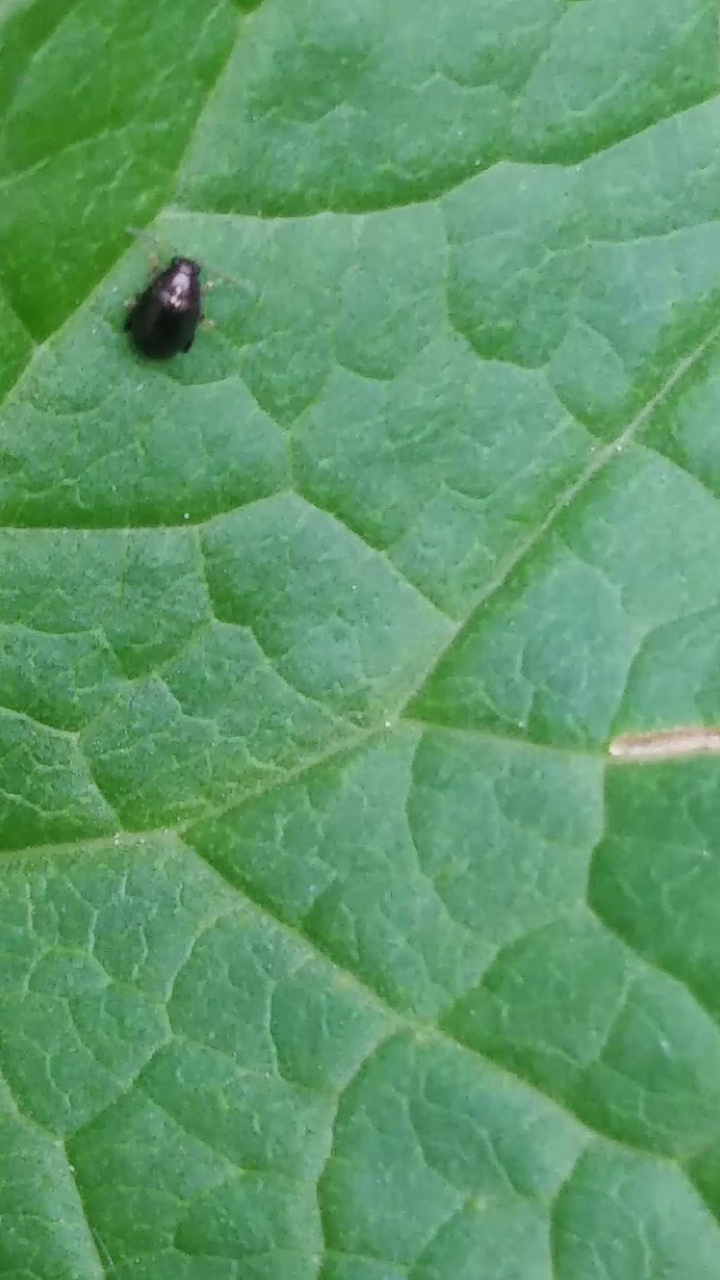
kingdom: Animalia
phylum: Arthropoda
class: Insecta
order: Hemiptera
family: Cicadellidae
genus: Japananus
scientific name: Japananus hyalinus
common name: The japanese maple leafhopper
